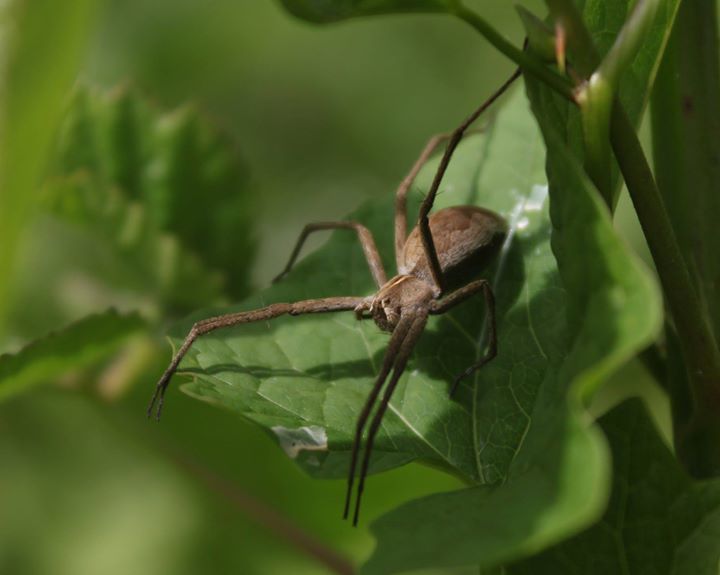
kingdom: Animalia
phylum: Arthropoda
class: Arachnida
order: Araneae
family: Pisauridae
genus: Pisaura
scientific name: Pisaura mirabilis
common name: Tent spider
